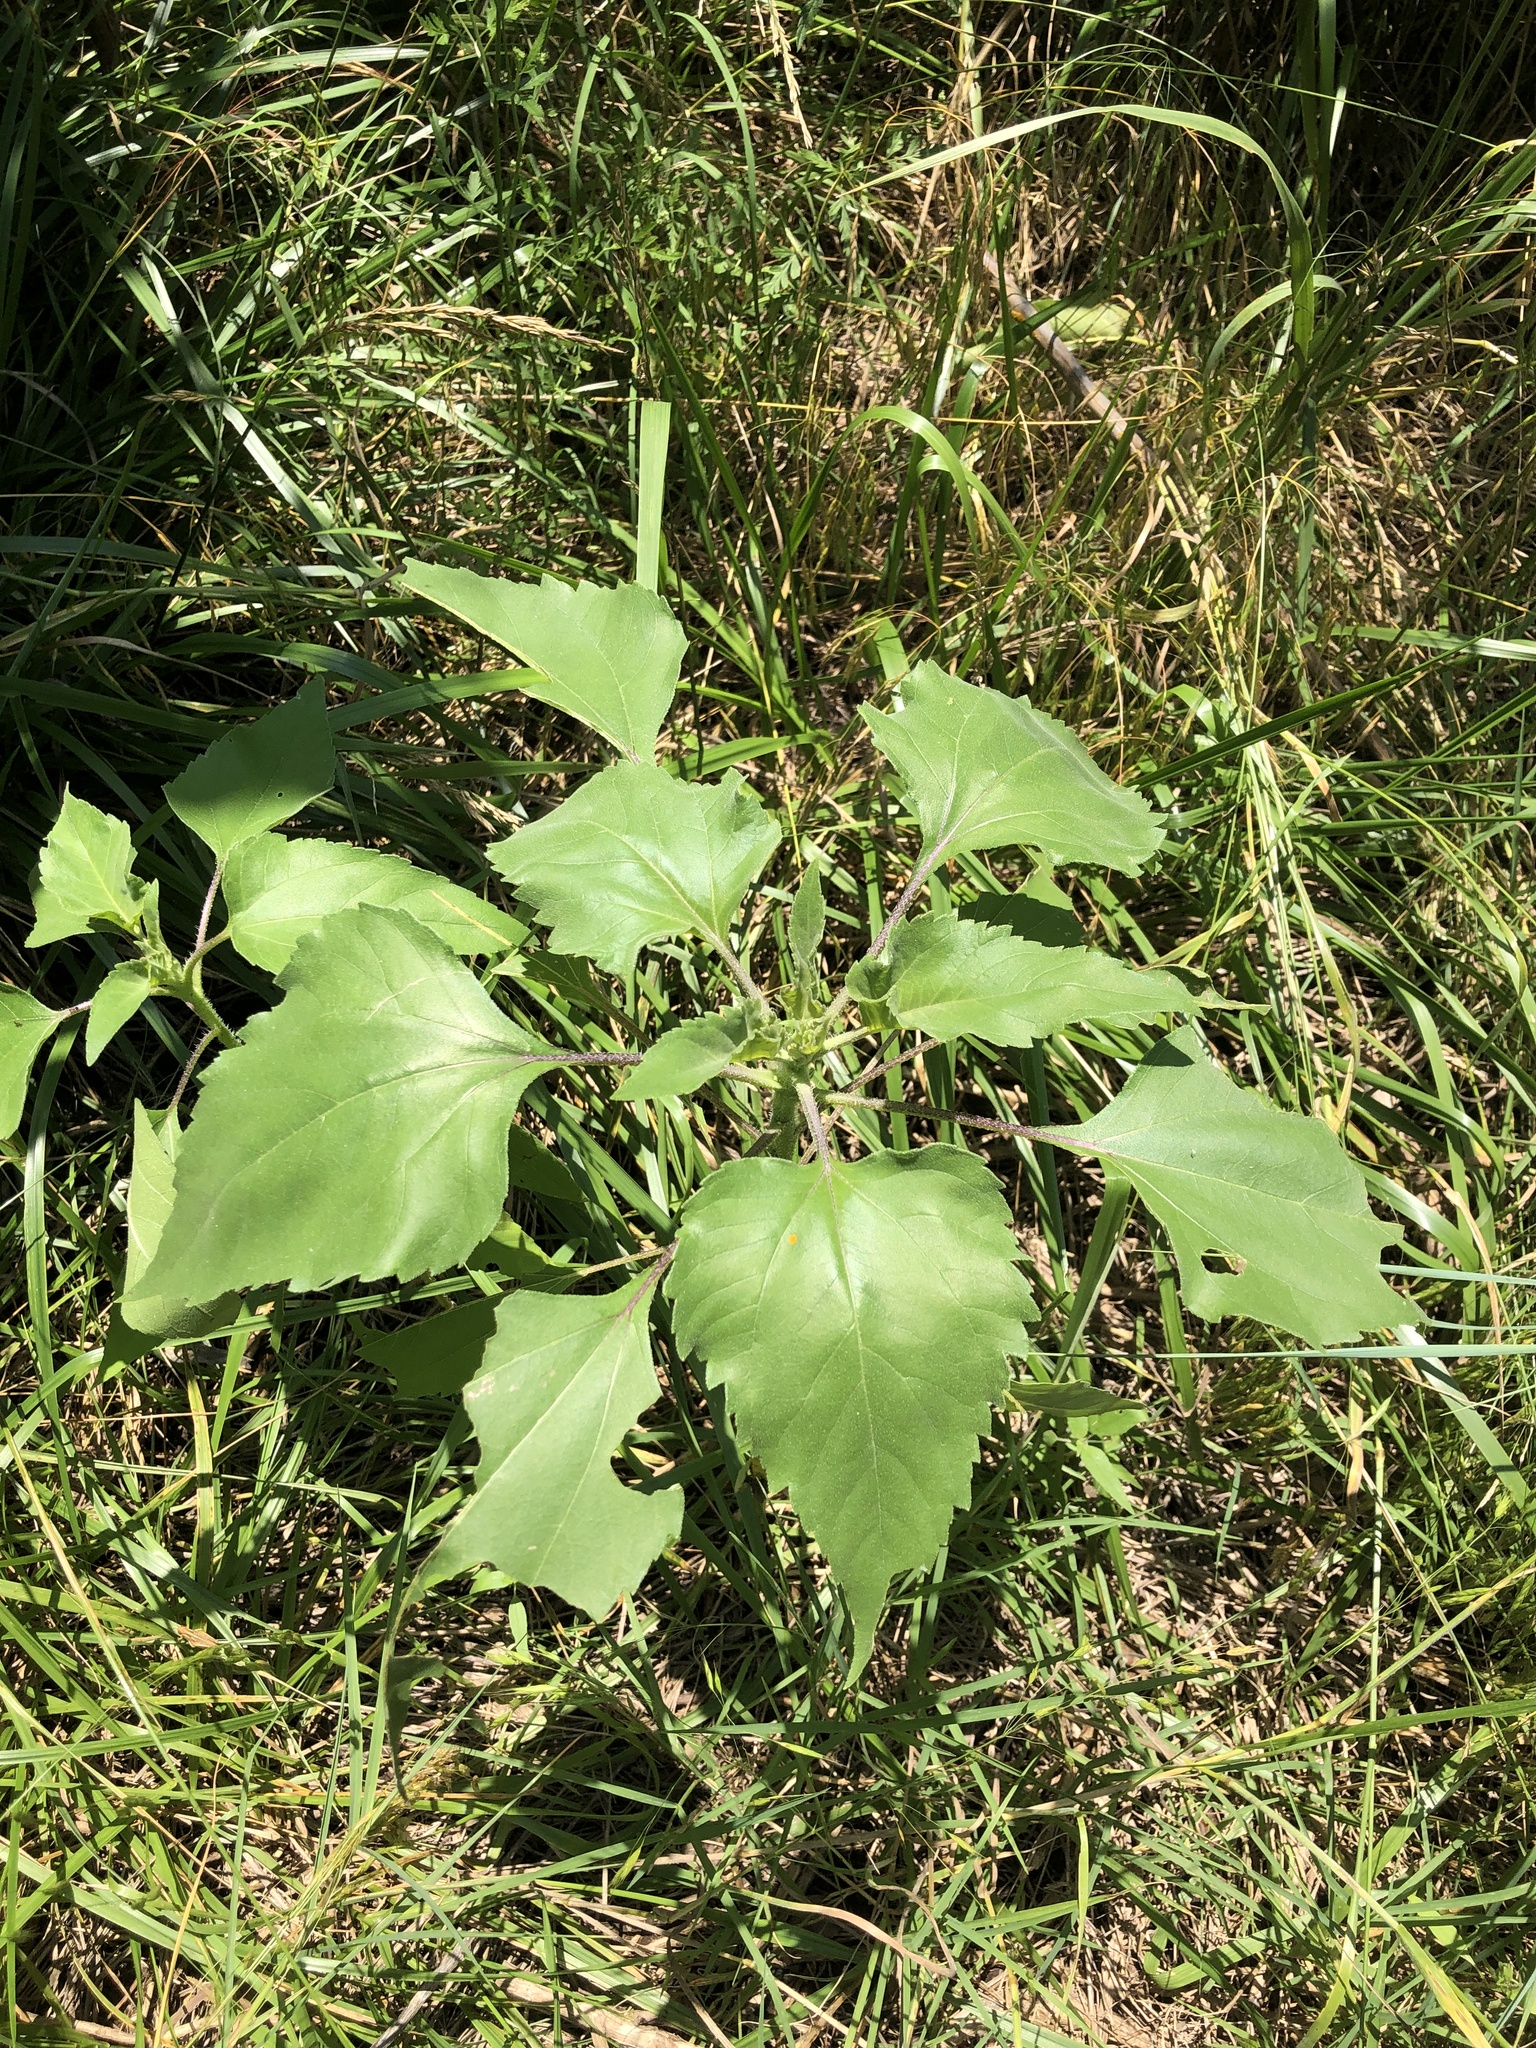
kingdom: Plantae
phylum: Tracheophyta
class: Magnoliopsida
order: Asterales
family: Asteraceae
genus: Helianthus
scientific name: Helianthus annuus
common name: Sunflower
